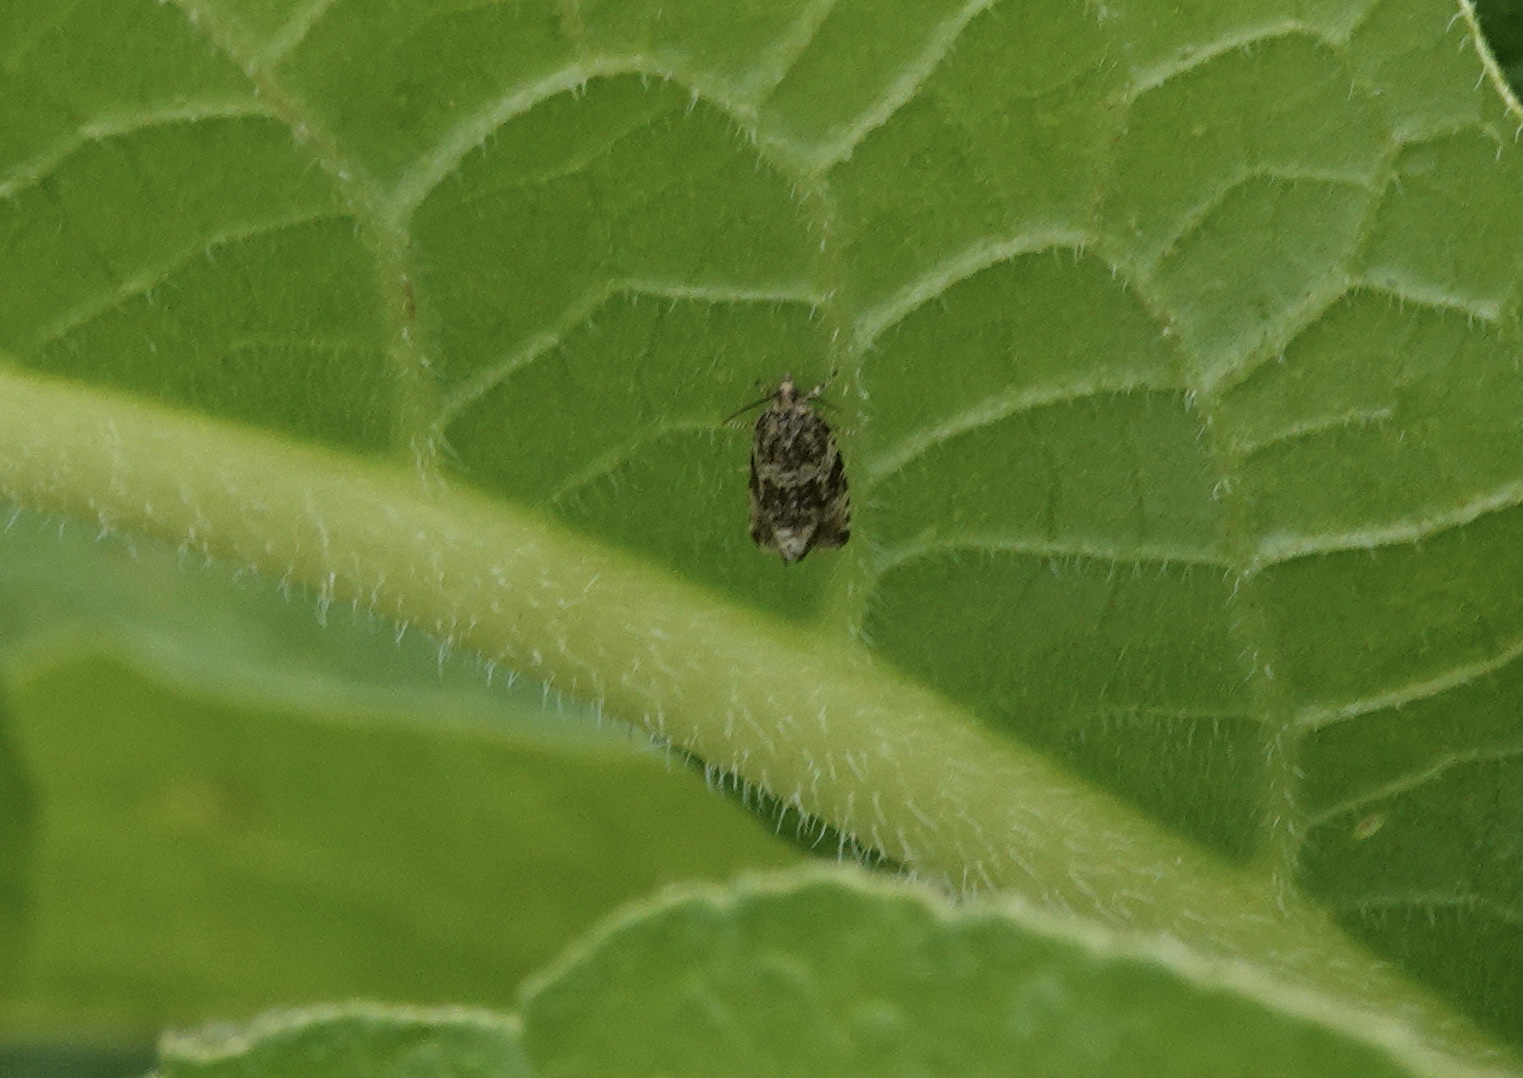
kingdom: Animalia
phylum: Arthropoda
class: Insecta
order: Lepidoptera
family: Tortricidae
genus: Syricoris
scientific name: Syricoris lacunana
